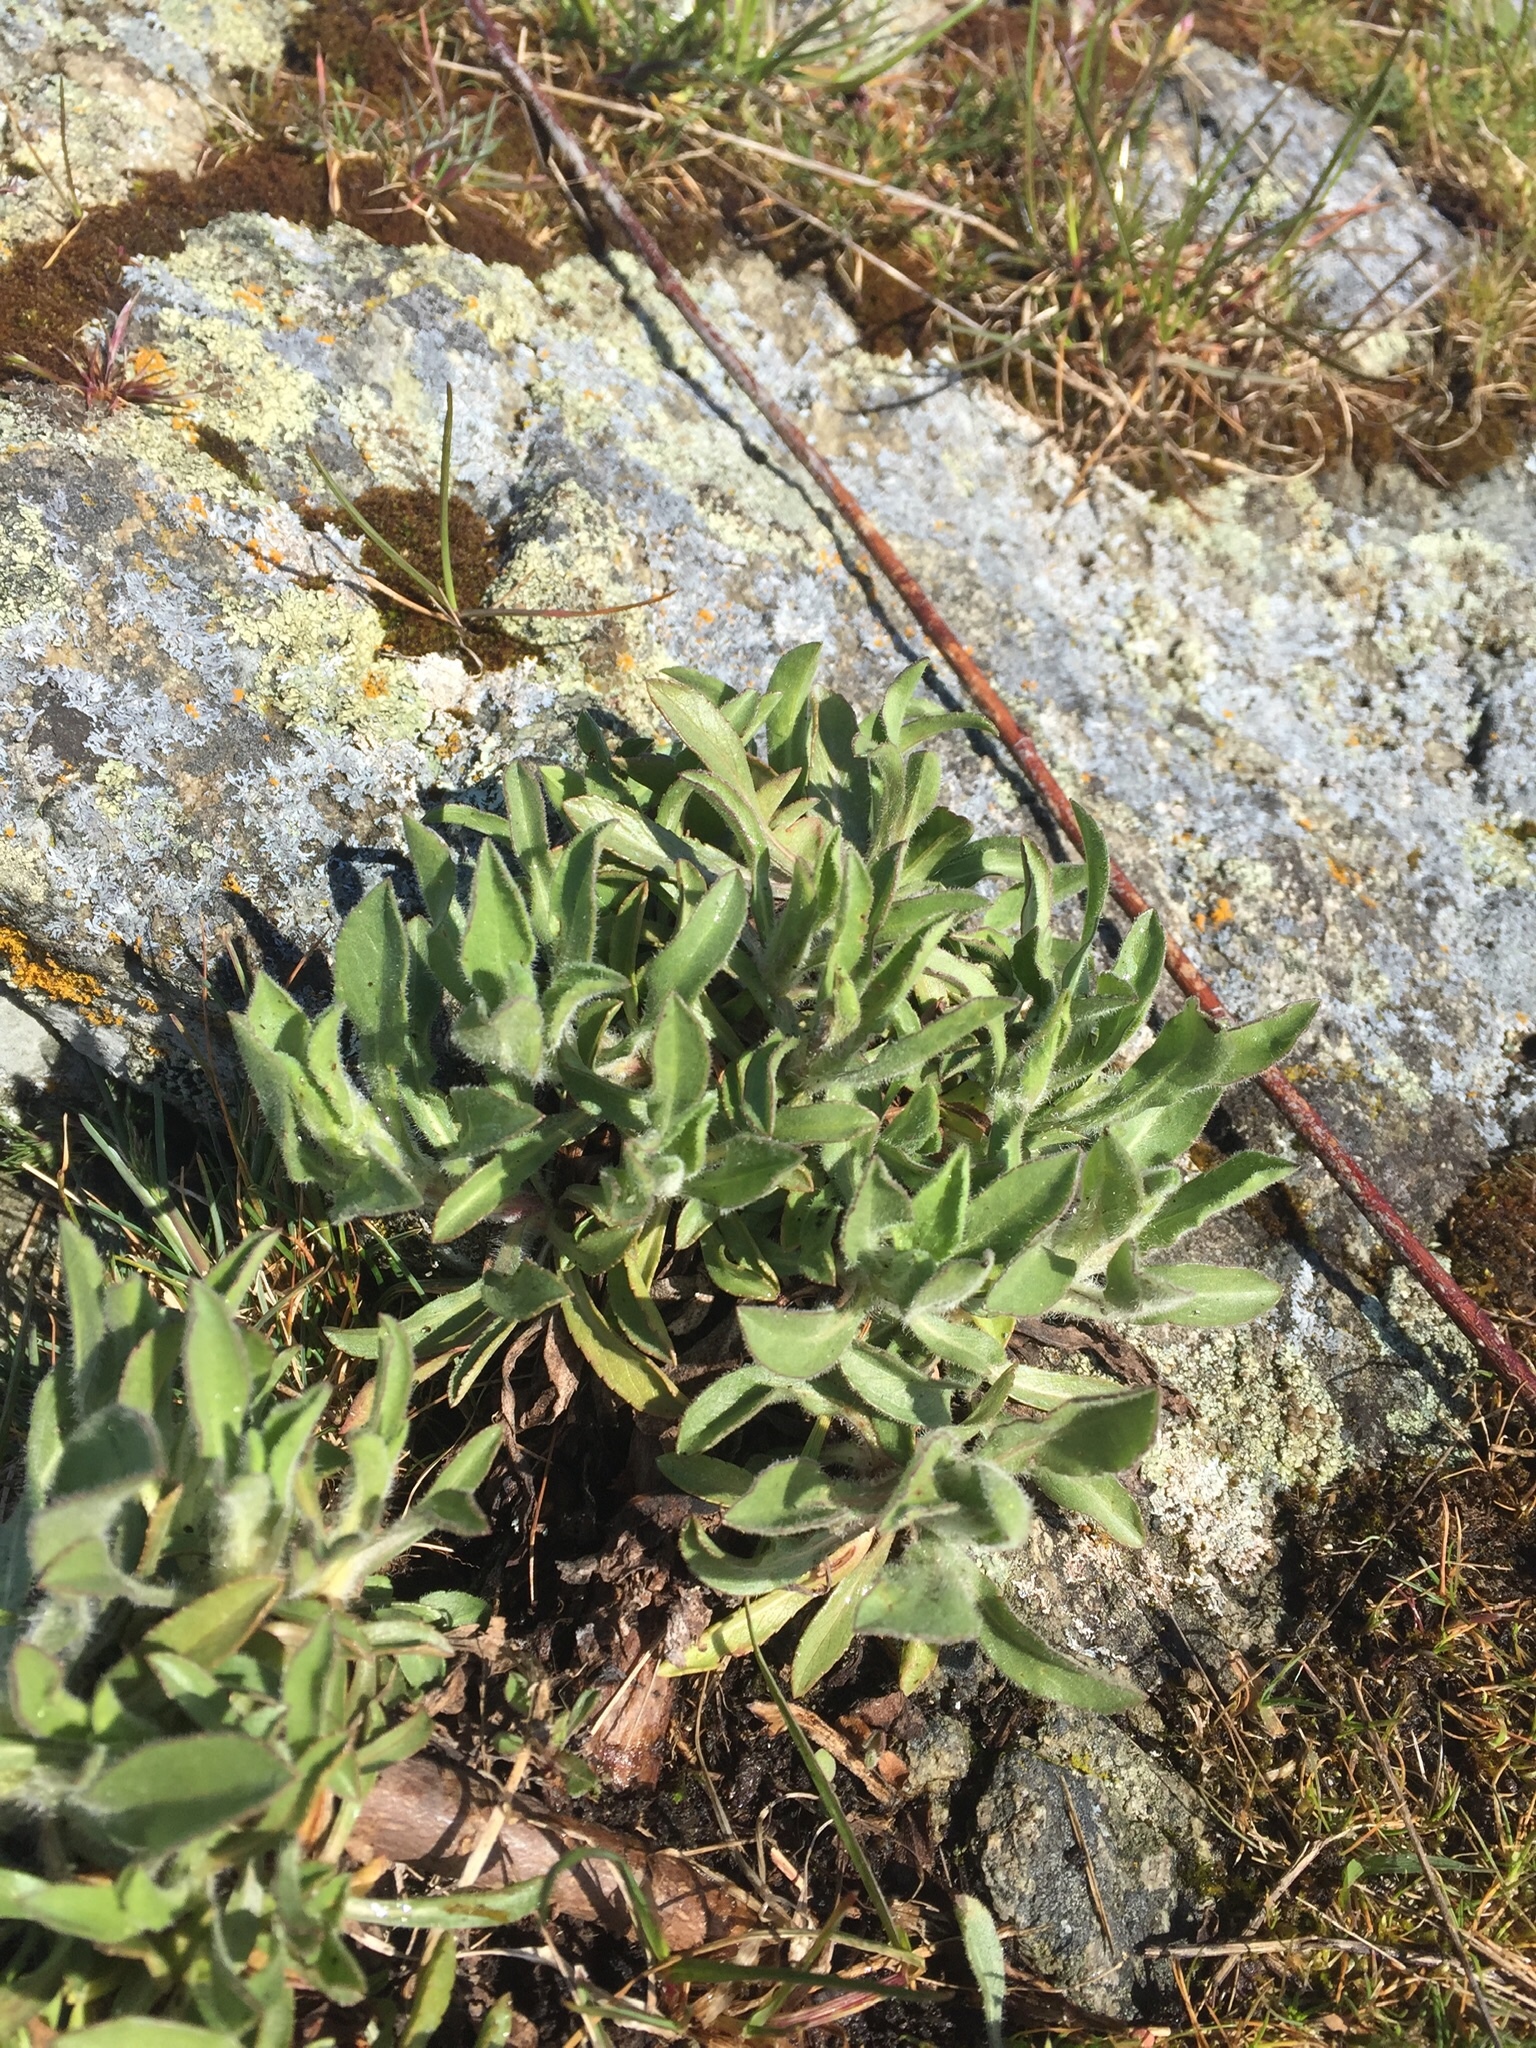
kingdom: Plantae
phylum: Tracheophyta
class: Magnoliopsida
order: Asterales
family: Asteraceae
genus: Grindelia
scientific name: Grindelia hirsutula
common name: Hairy gumweed
